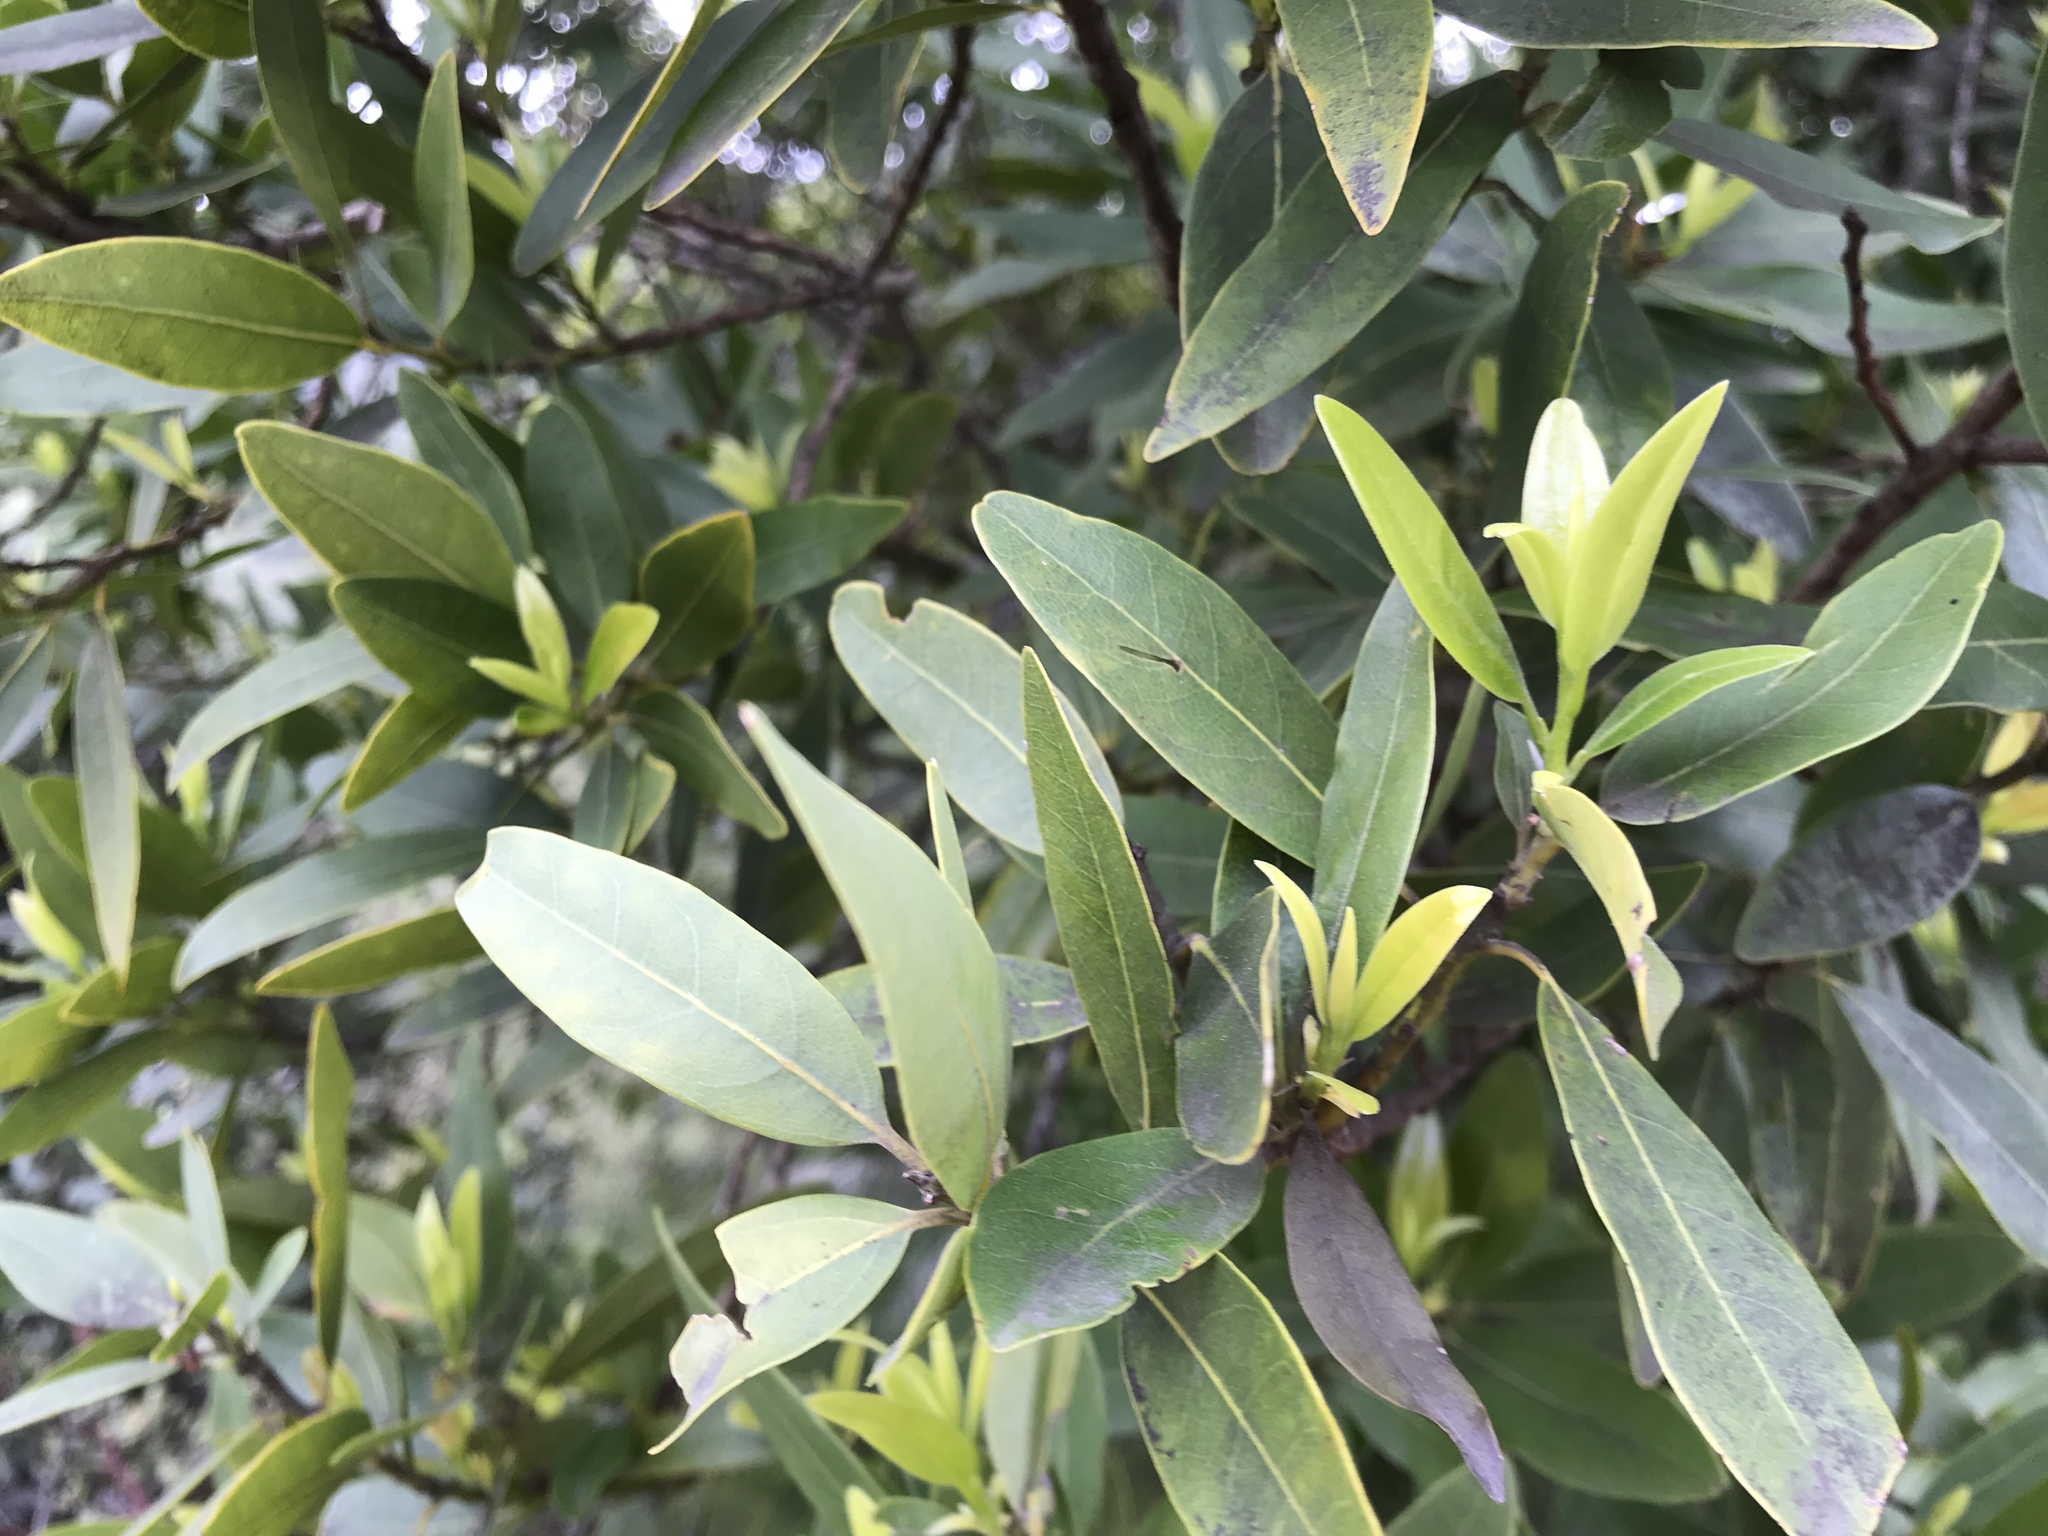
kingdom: Plantae
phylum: Tracheophyta
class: Magnoliopsida
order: Laurales
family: Lauraceae
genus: Umbellularia
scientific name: Umbellularia californica
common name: California bay
